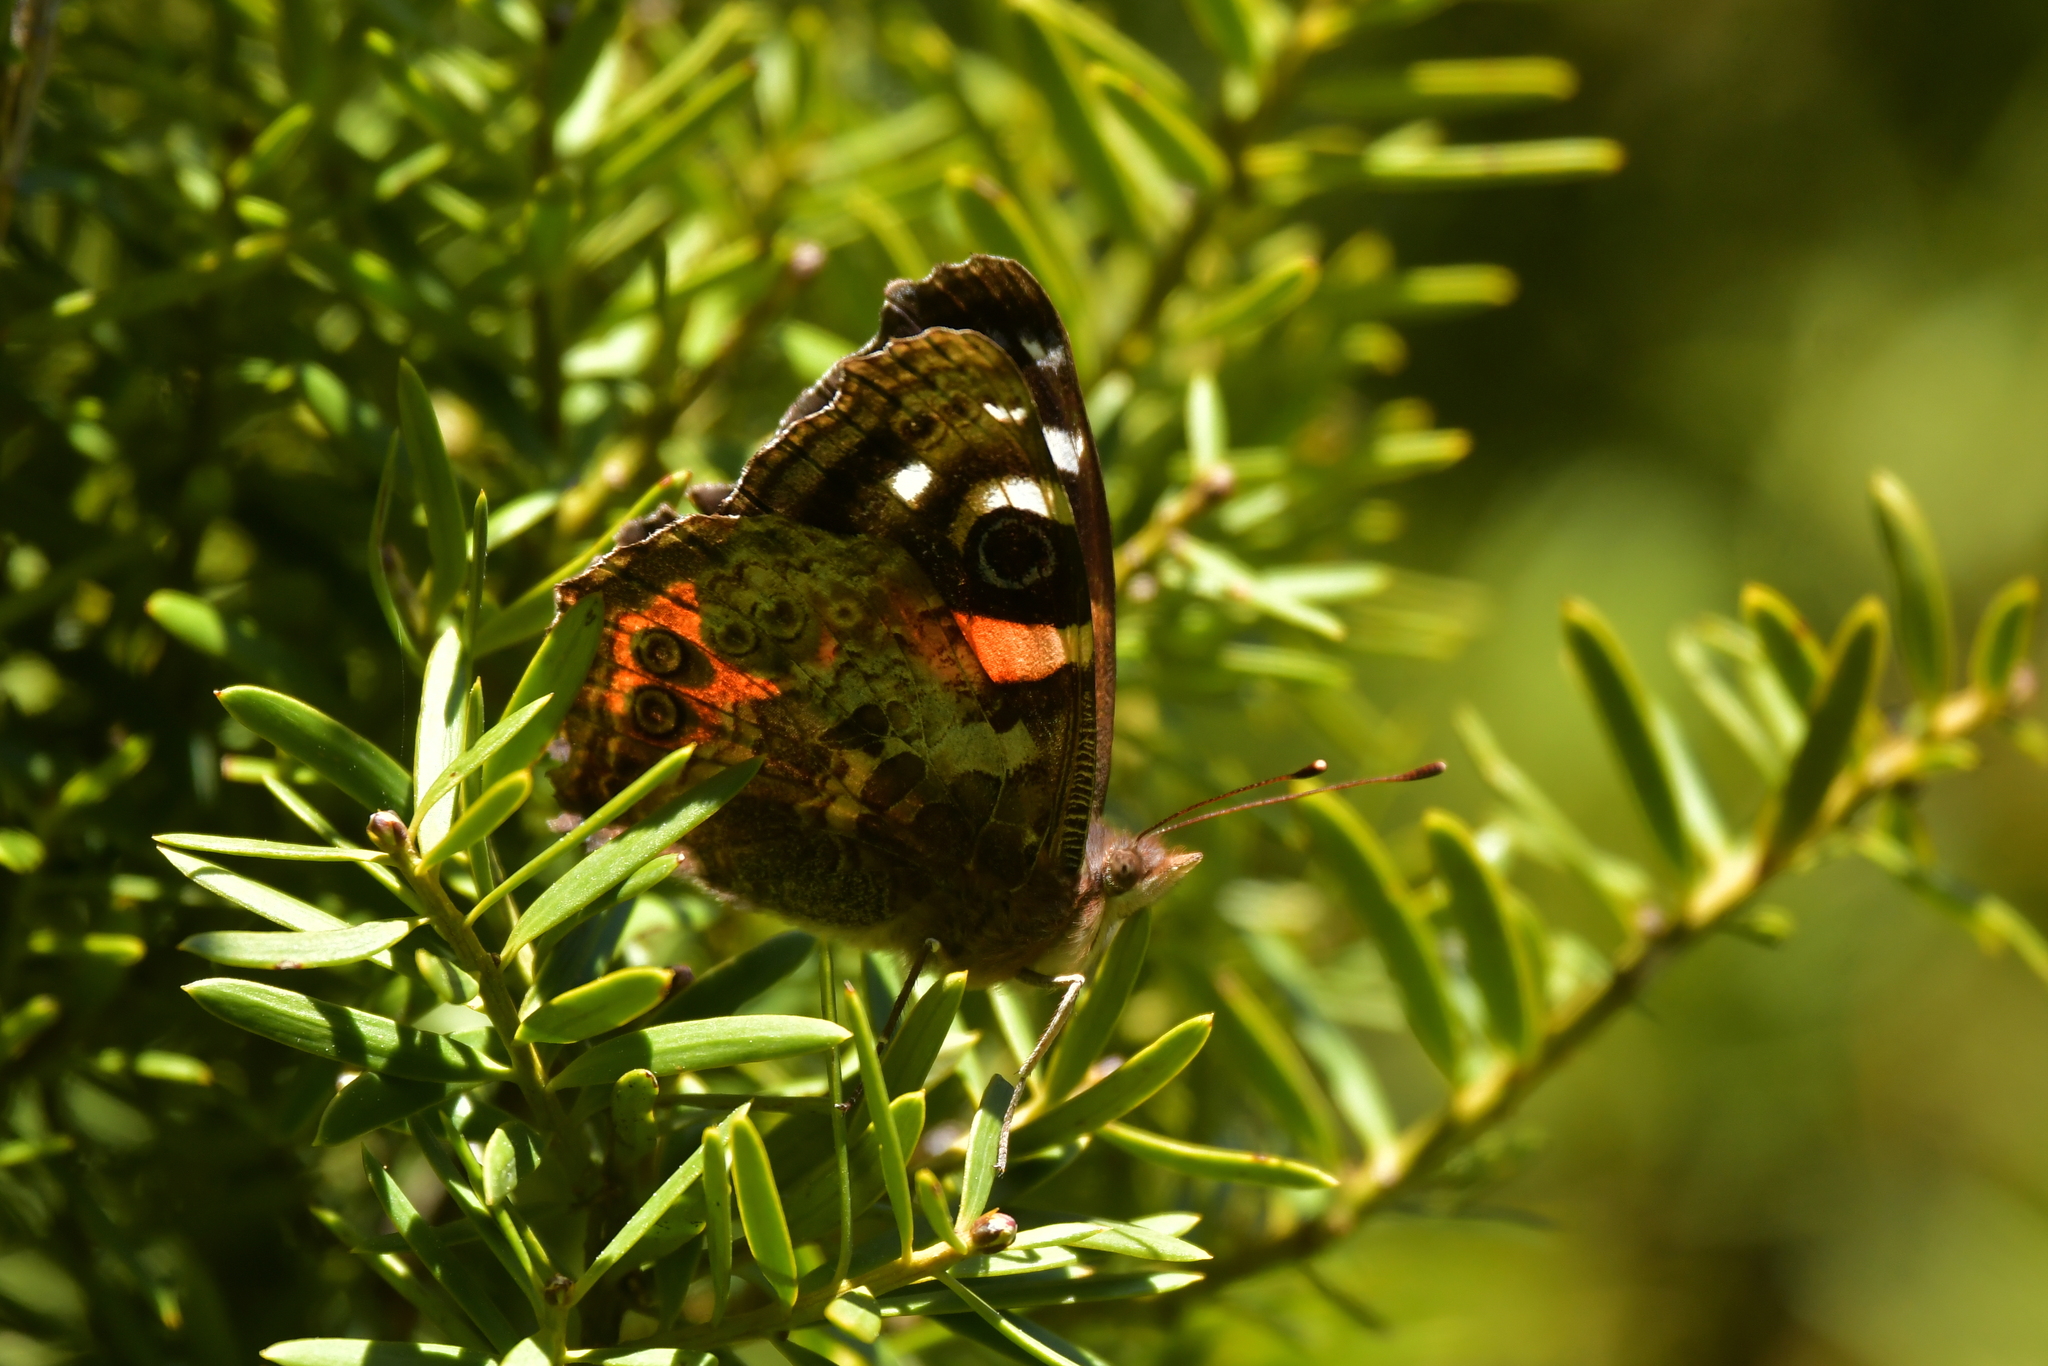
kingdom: Animalia
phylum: Arthropoda
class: Insecta
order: Lepidoptera
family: Nymphalidae
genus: Vanessa
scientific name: Vanessa gonerilla
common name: New zealand red admiral
